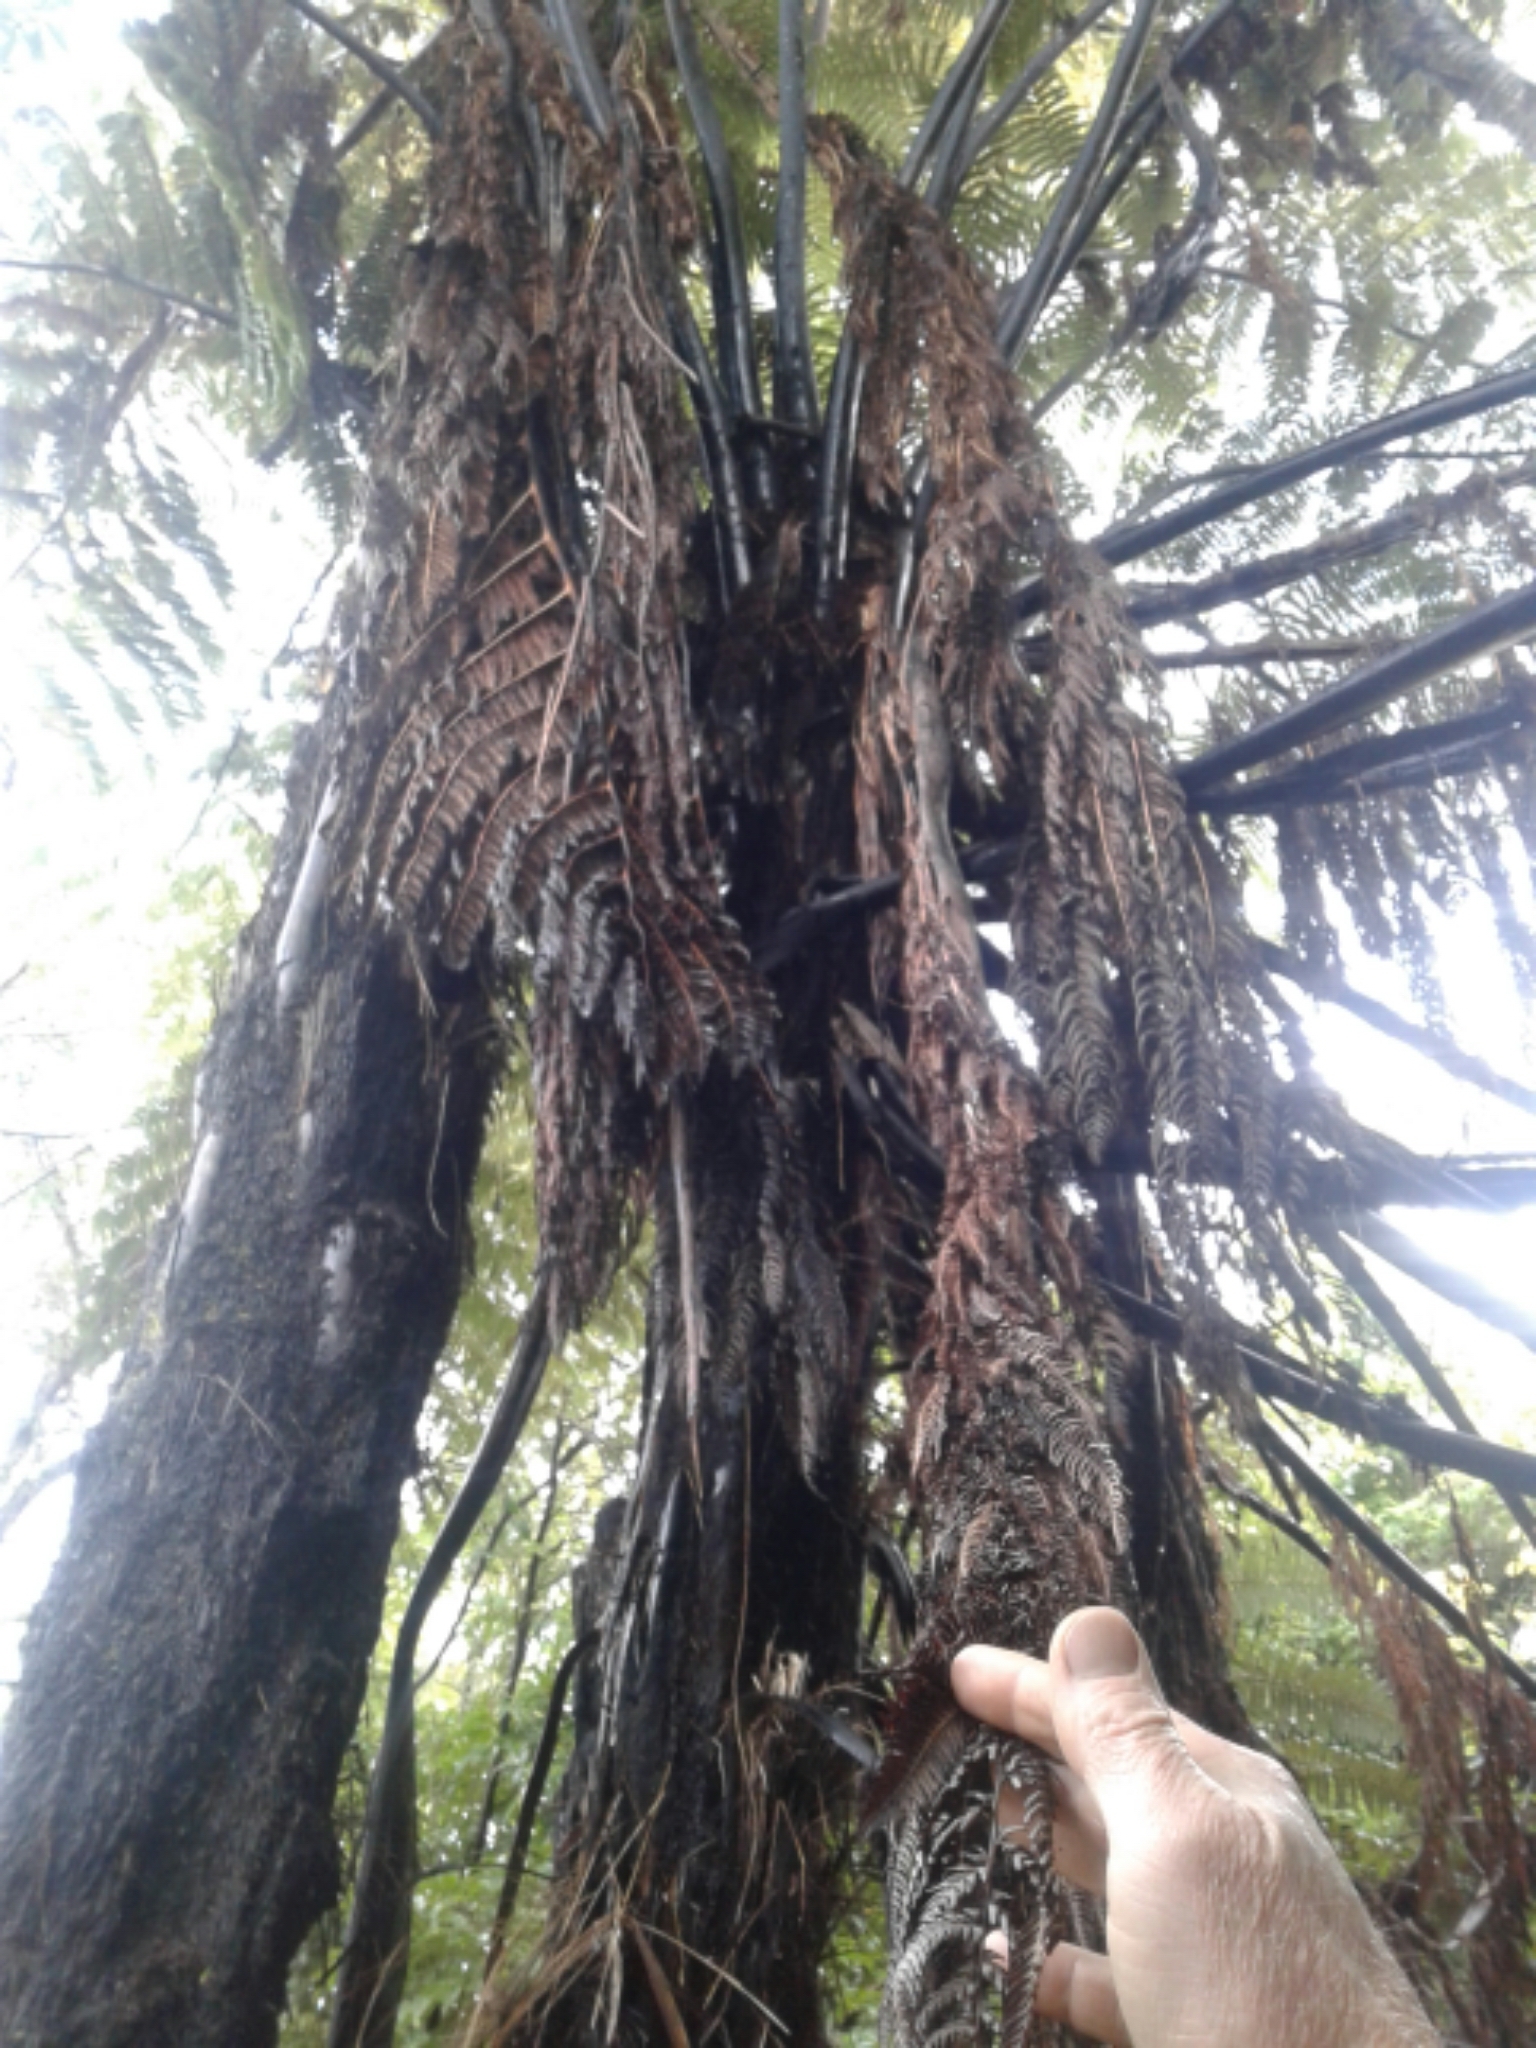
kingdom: Plantae
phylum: Tracheophyta
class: Polypodiopsida
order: Cyatheales
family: Cyatheaceae
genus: Sphaeropteris
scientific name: Sphaeropteris medullaris
